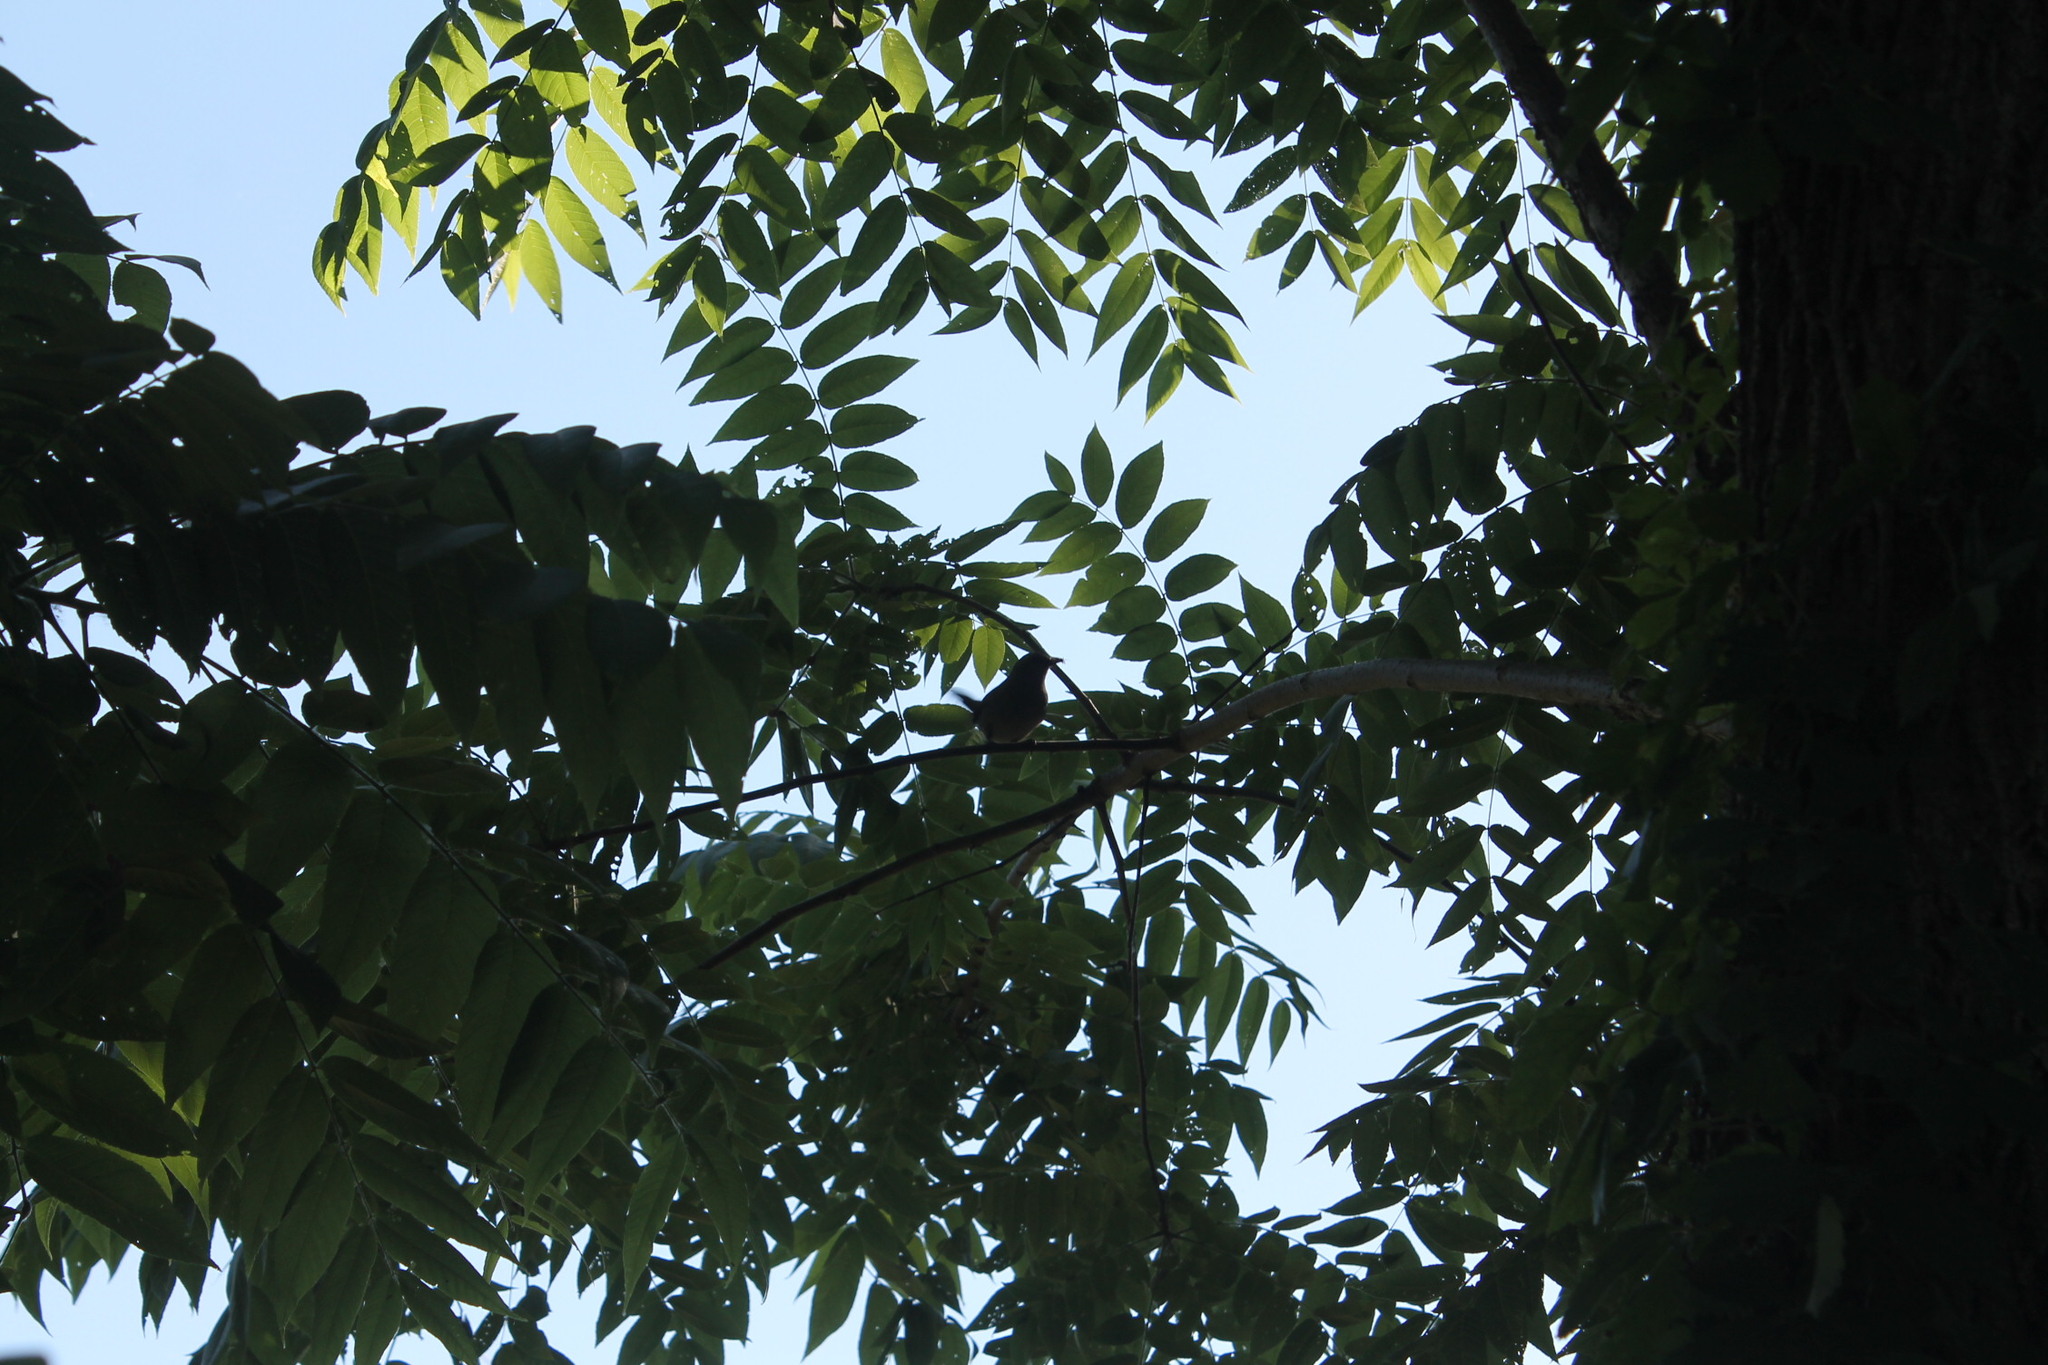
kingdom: Animalia
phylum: Chordata
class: Aves
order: Passeriformes
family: Mimidae
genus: Dumetella
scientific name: Dumetella carolinensis
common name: Gray catbird
